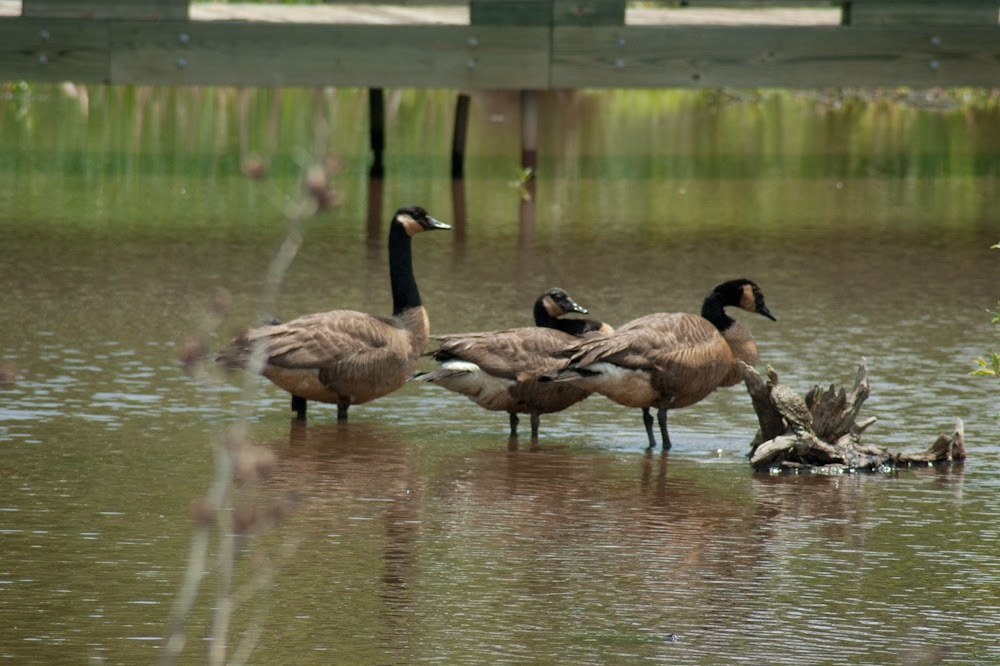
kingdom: Animalia
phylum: Chordata
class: Aves
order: Anseriformes
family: Anatidae
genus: Branta
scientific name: Branta canadensis
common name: Canada goose
